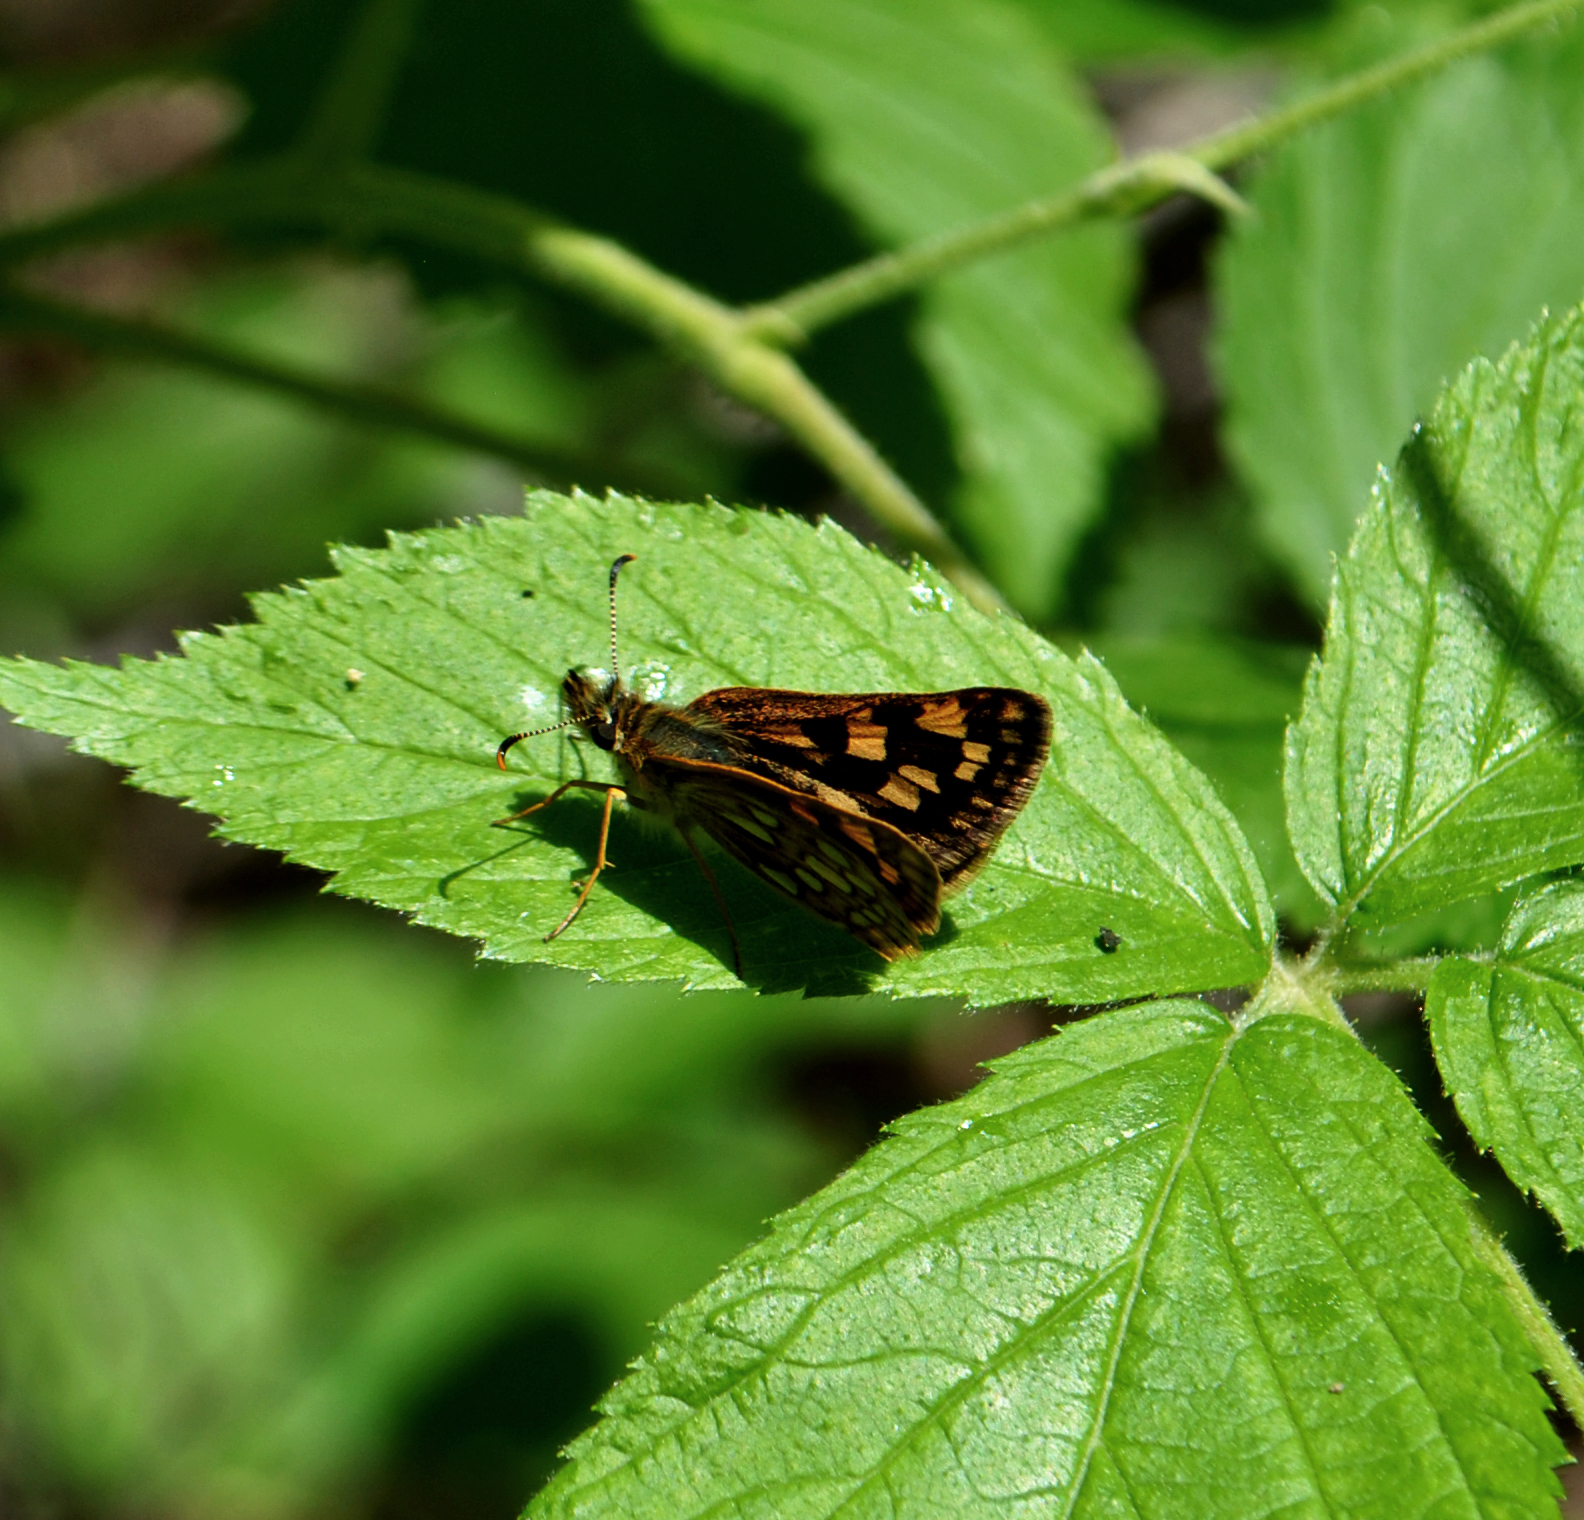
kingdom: Animalia
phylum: Arthropoda
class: Insecta
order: Lepidoptera
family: Hesperiidae
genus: Carterocephalus
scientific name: Carterocephalus mandan
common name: Arctic skipperling
